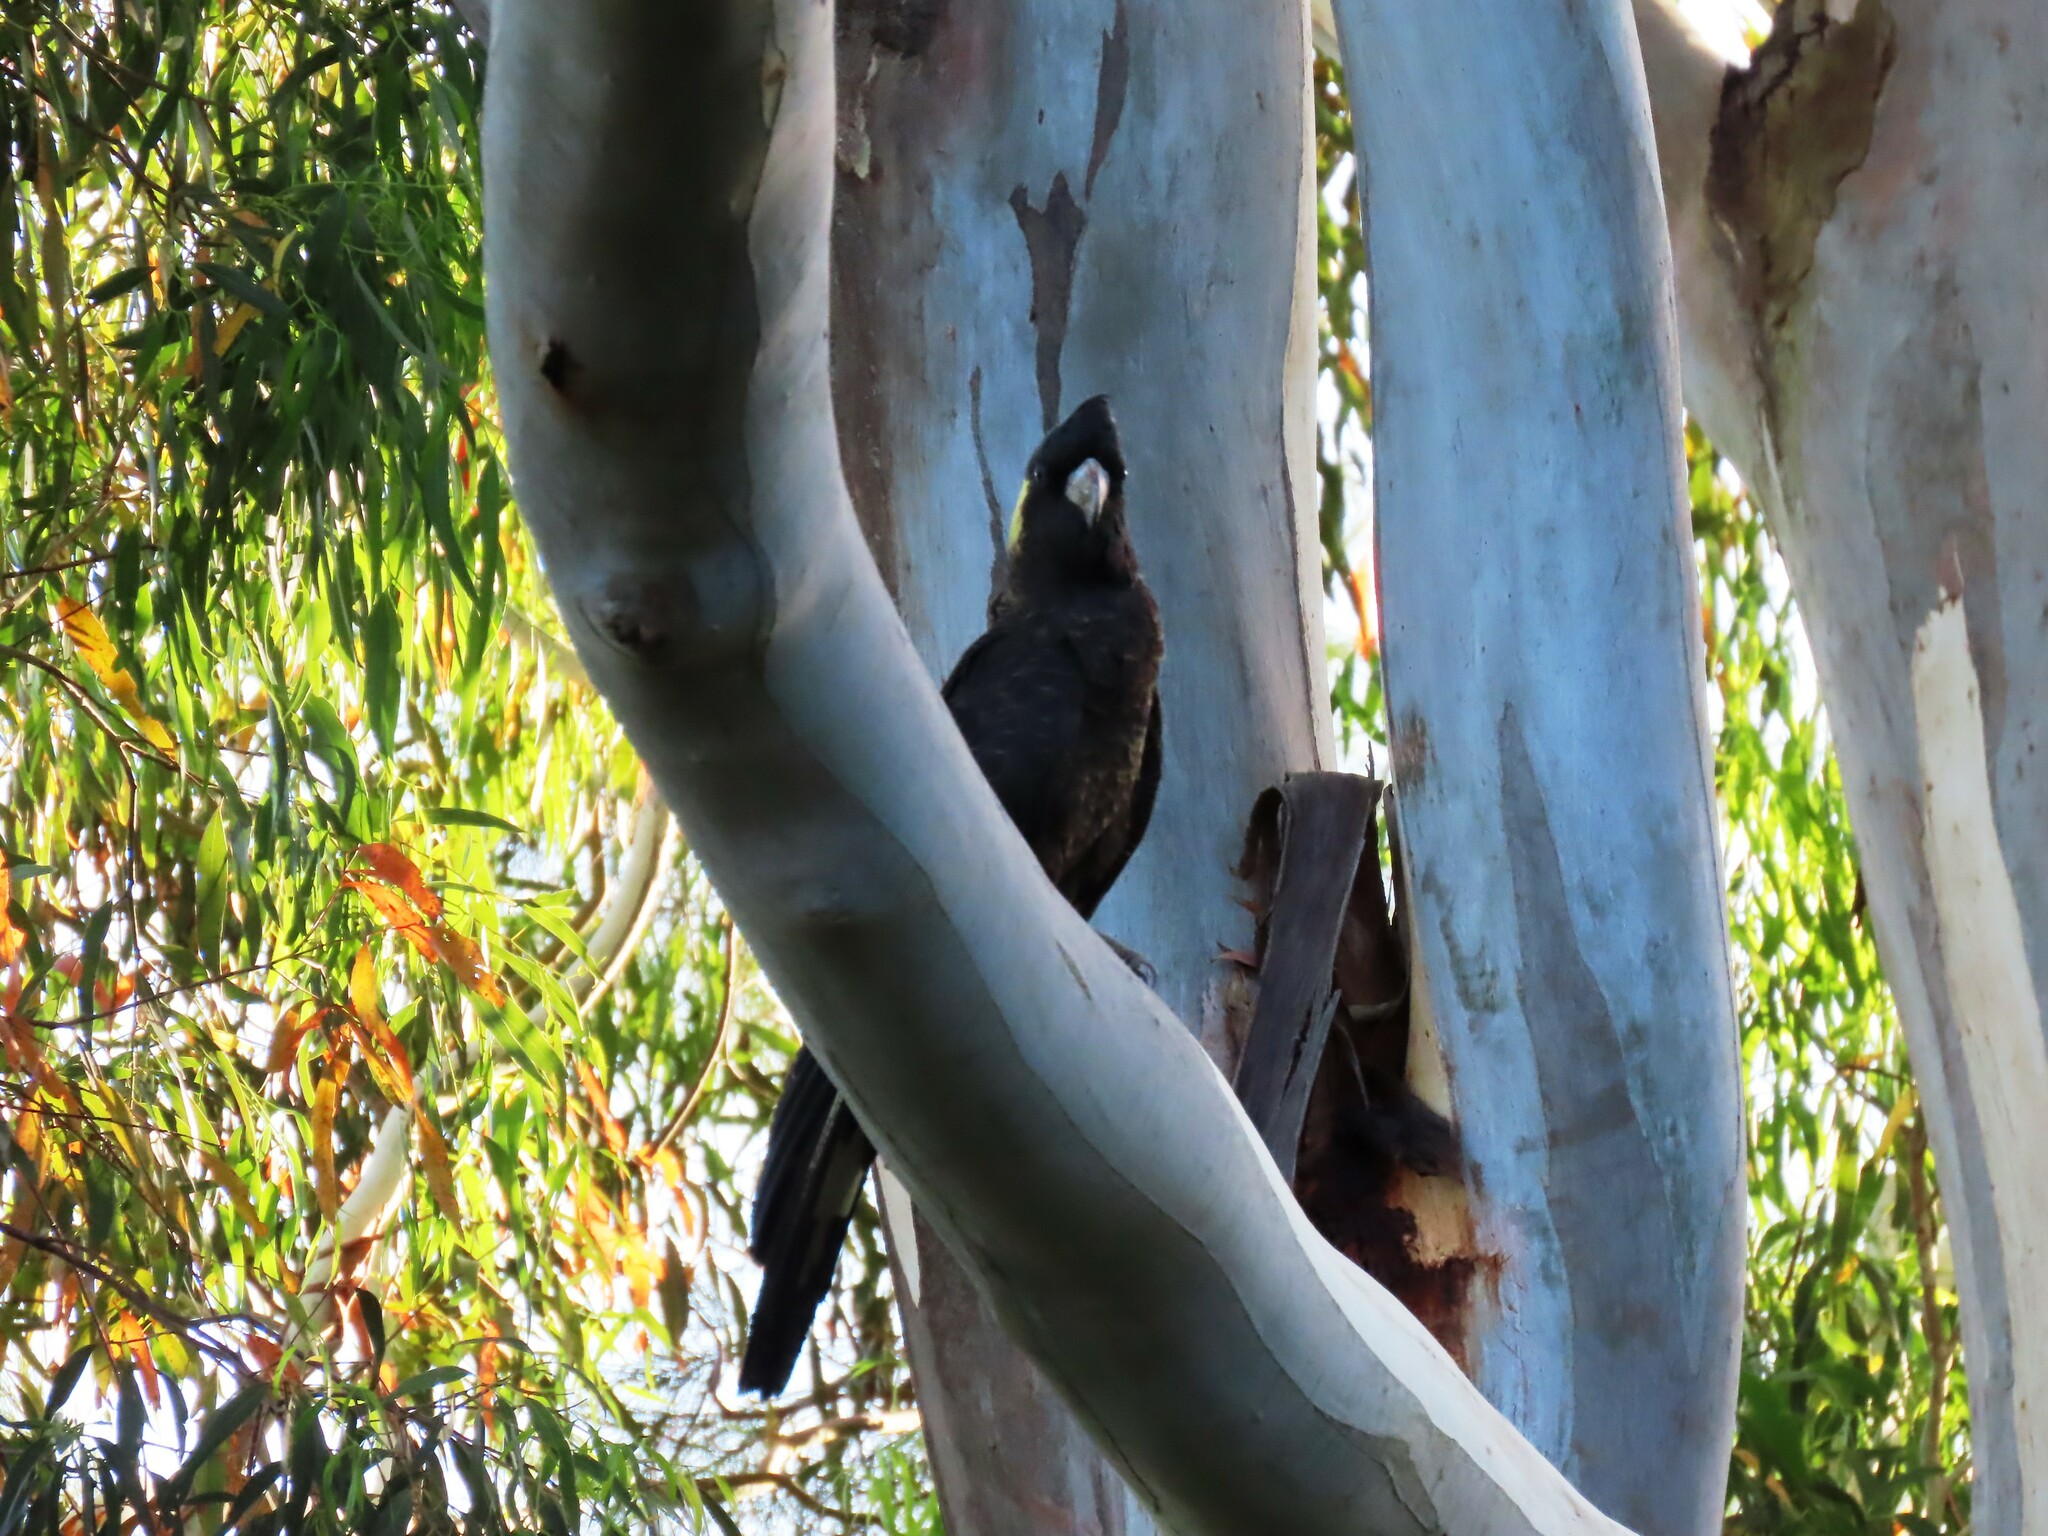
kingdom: Animalia
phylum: Chordata
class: Aves
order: Psittaciformes
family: Cacatuidae
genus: Zanda
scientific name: Zanda funerea
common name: Yellow-tailed black-cockatoo
